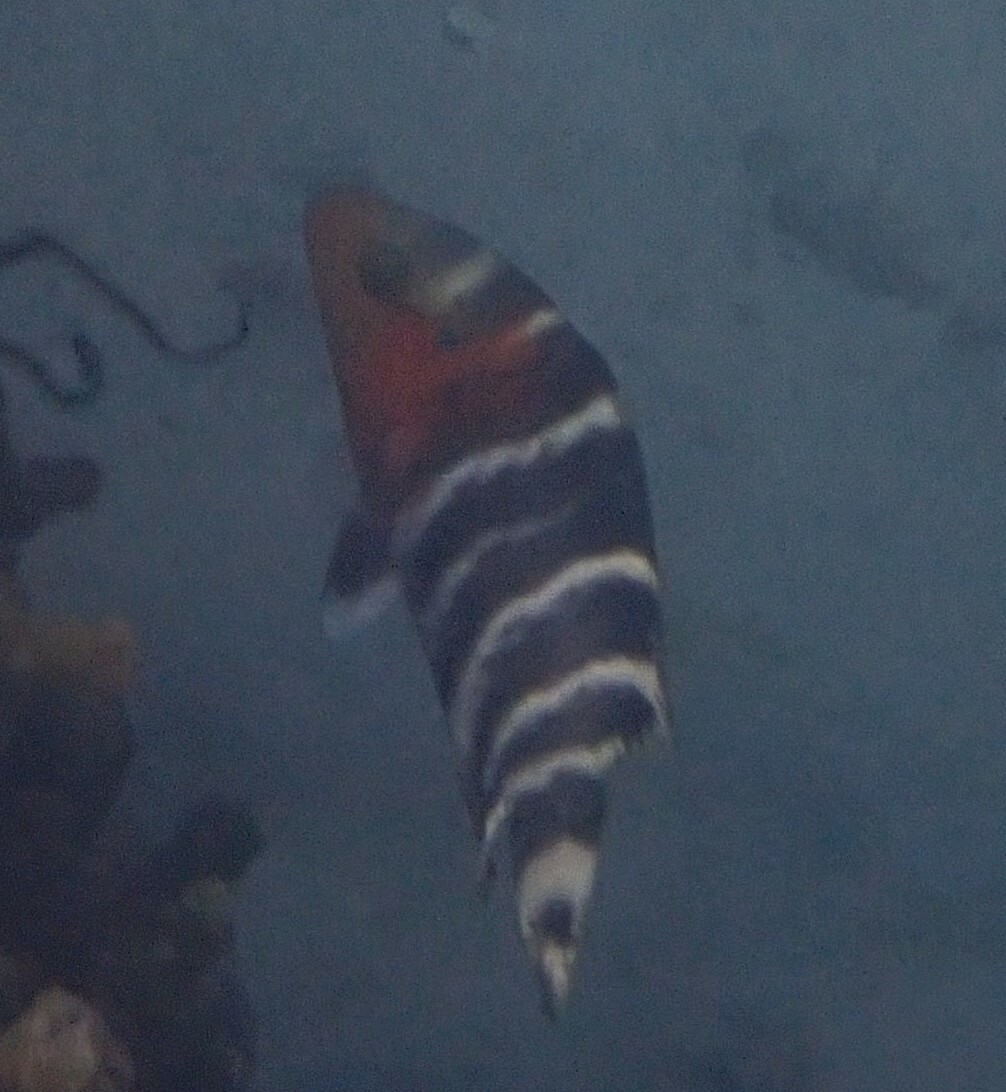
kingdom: Animalia
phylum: Chordata
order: Perciformes
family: Labridae
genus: Cheilinus
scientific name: Cheilinus fasciatus
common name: Red-breasted wrasse
